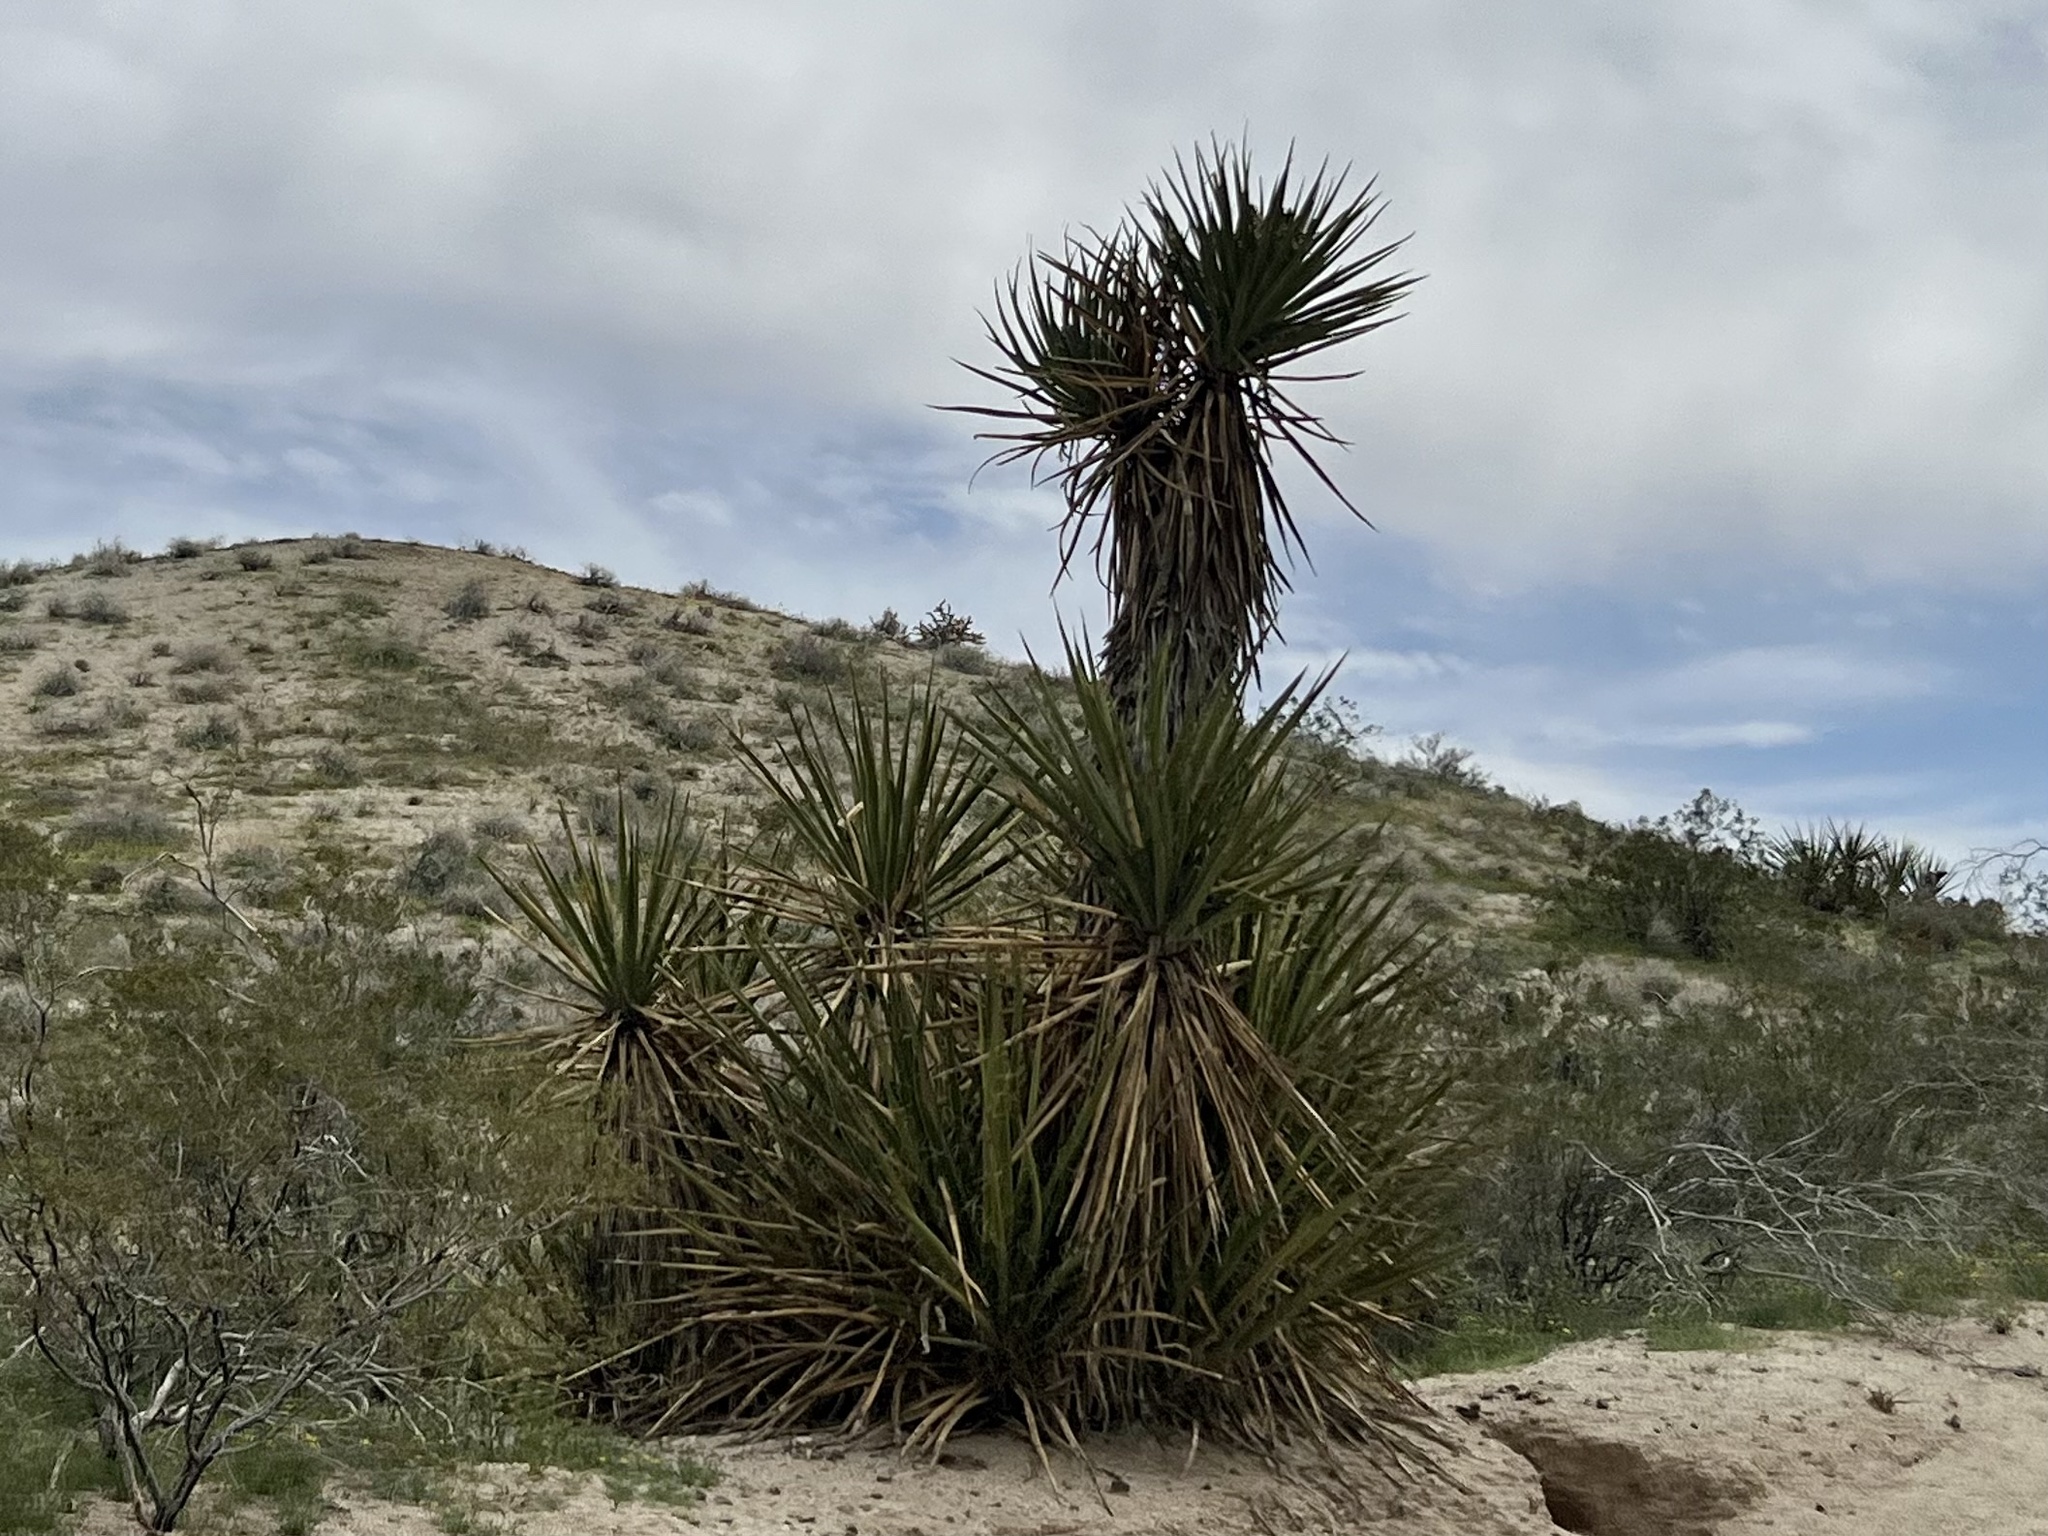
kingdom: Plantae
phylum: Tracheophyta
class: Liliopsida
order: Asparagales
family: Asparagaceae
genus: Yucca
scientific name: Yucca schidigera
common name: Mojave yucca
